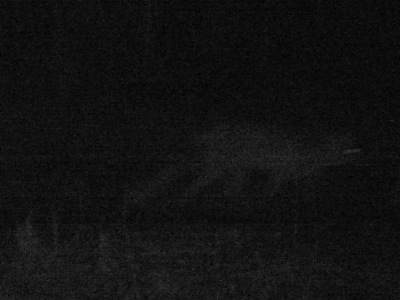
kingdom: Animalia
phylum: Chordata
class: Mammalia
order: Carnivora
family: Canidae
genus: Vulpes
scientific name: Vulpes vulpes
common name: Red fox
